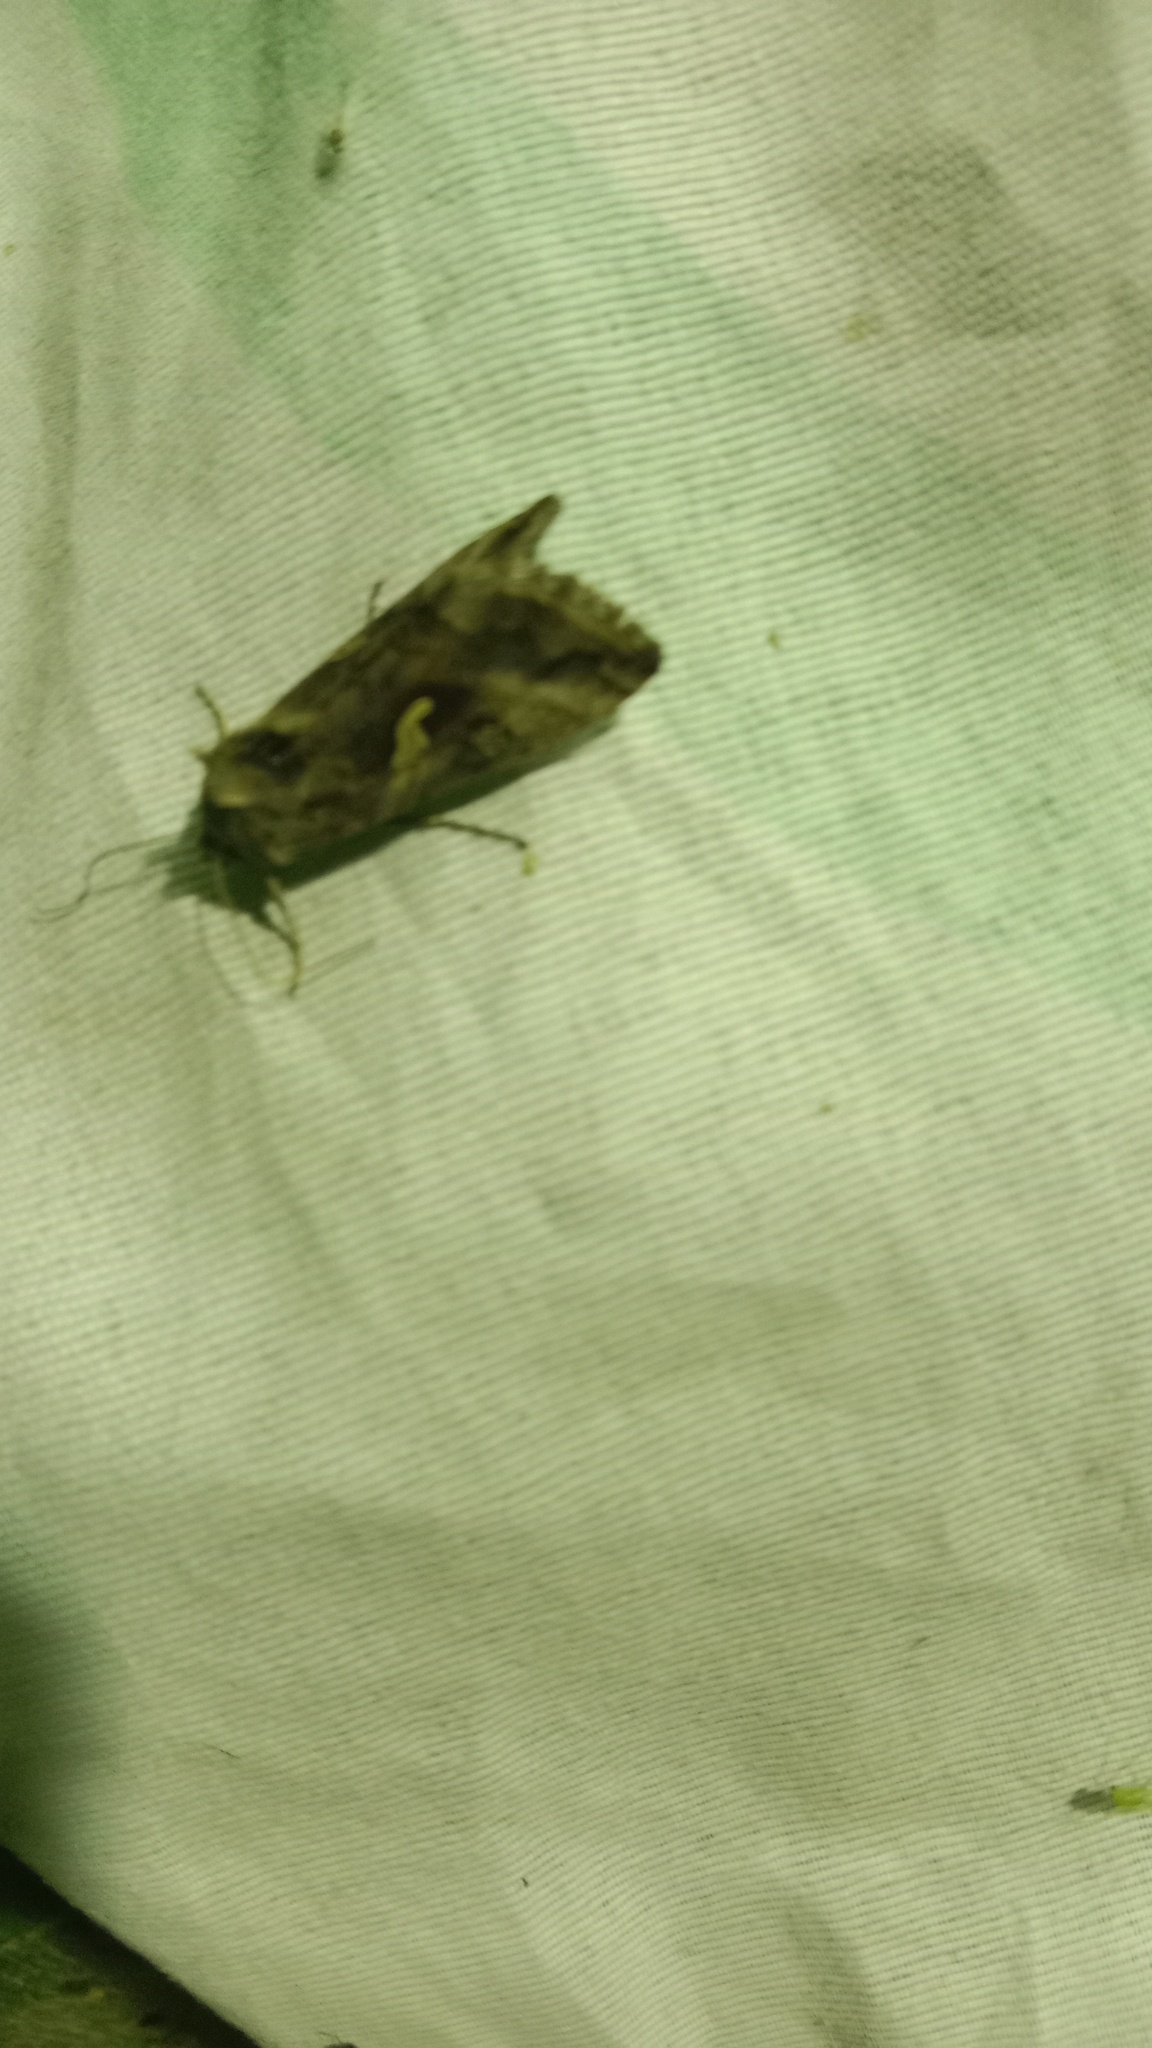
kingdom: Animalia
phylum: Arthropoda
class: Insecta
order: Lepidoptera
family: Noctuidae
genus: Autographa
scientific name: Autographa gamma
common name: Silver y
